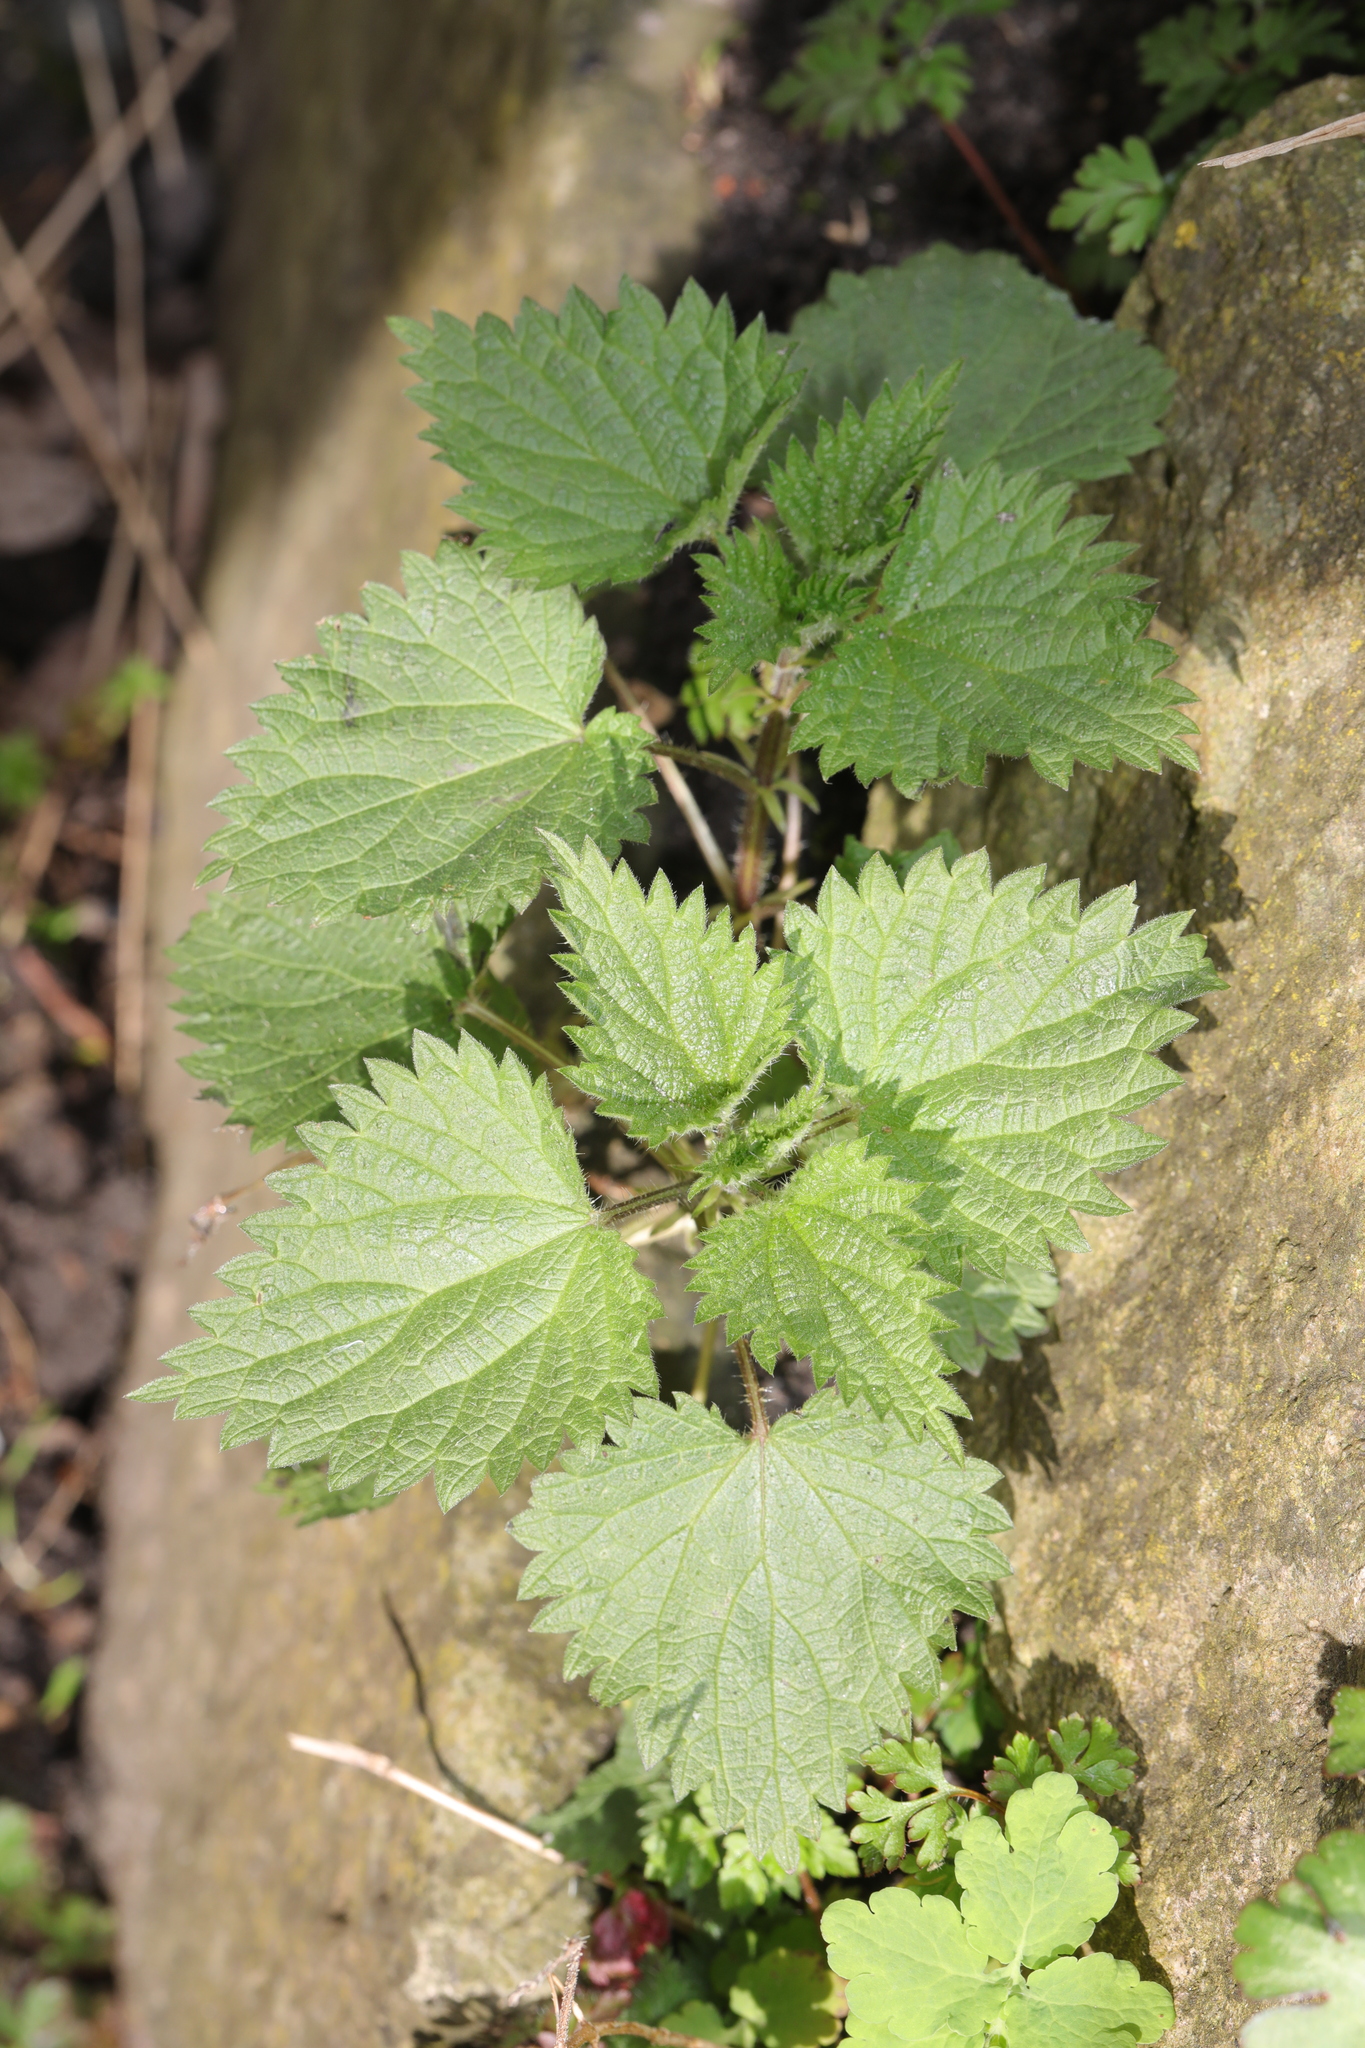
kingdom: Plantae
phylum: Tracheophyta
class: Magnoliopsida
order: Rosales
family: Urticaceae
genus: Urtica
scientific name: Urtica dioica
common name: Common nettle
